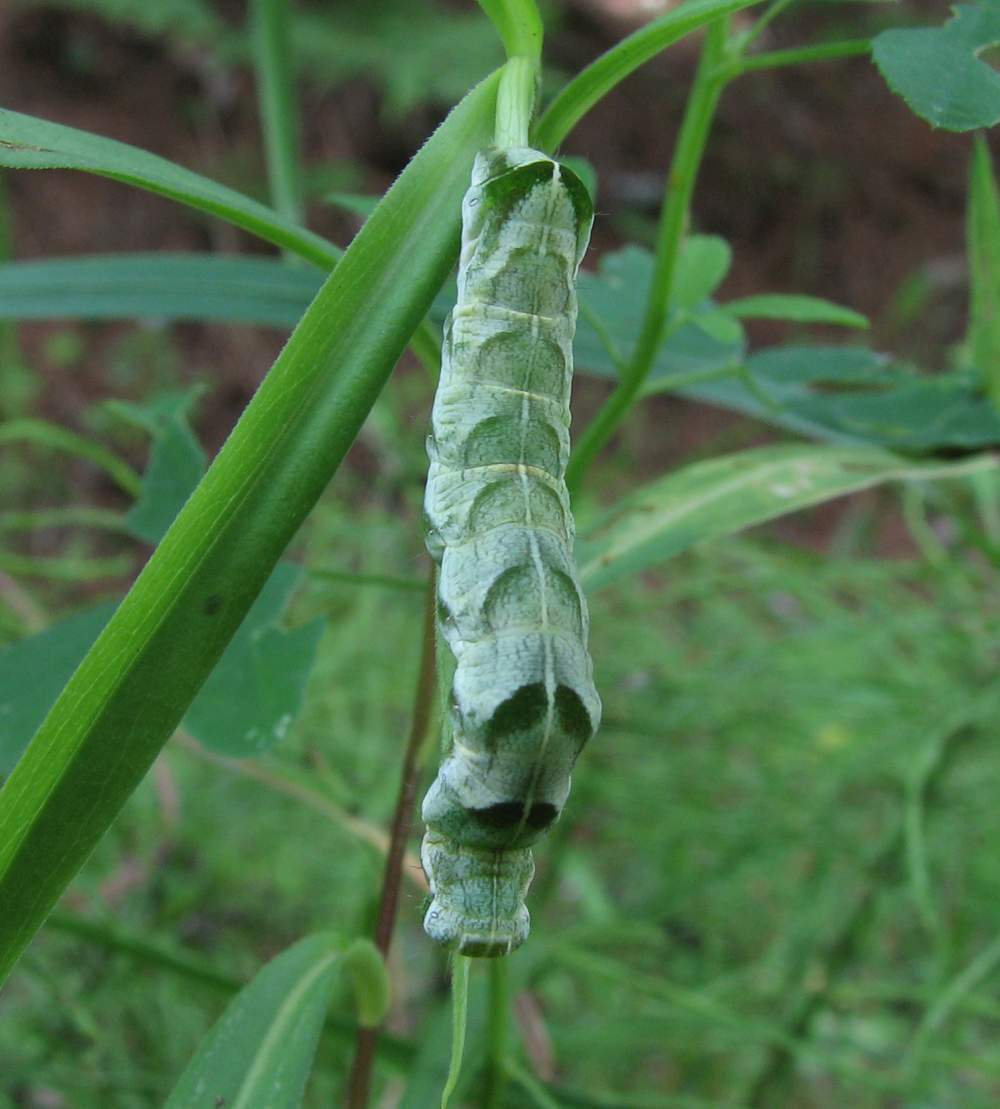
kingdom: Animalia
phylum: Arthropoda
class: Insecta
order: Lepidoptera
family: Noctuidae
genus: Melanchra
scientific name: Melanchra adjuncta
